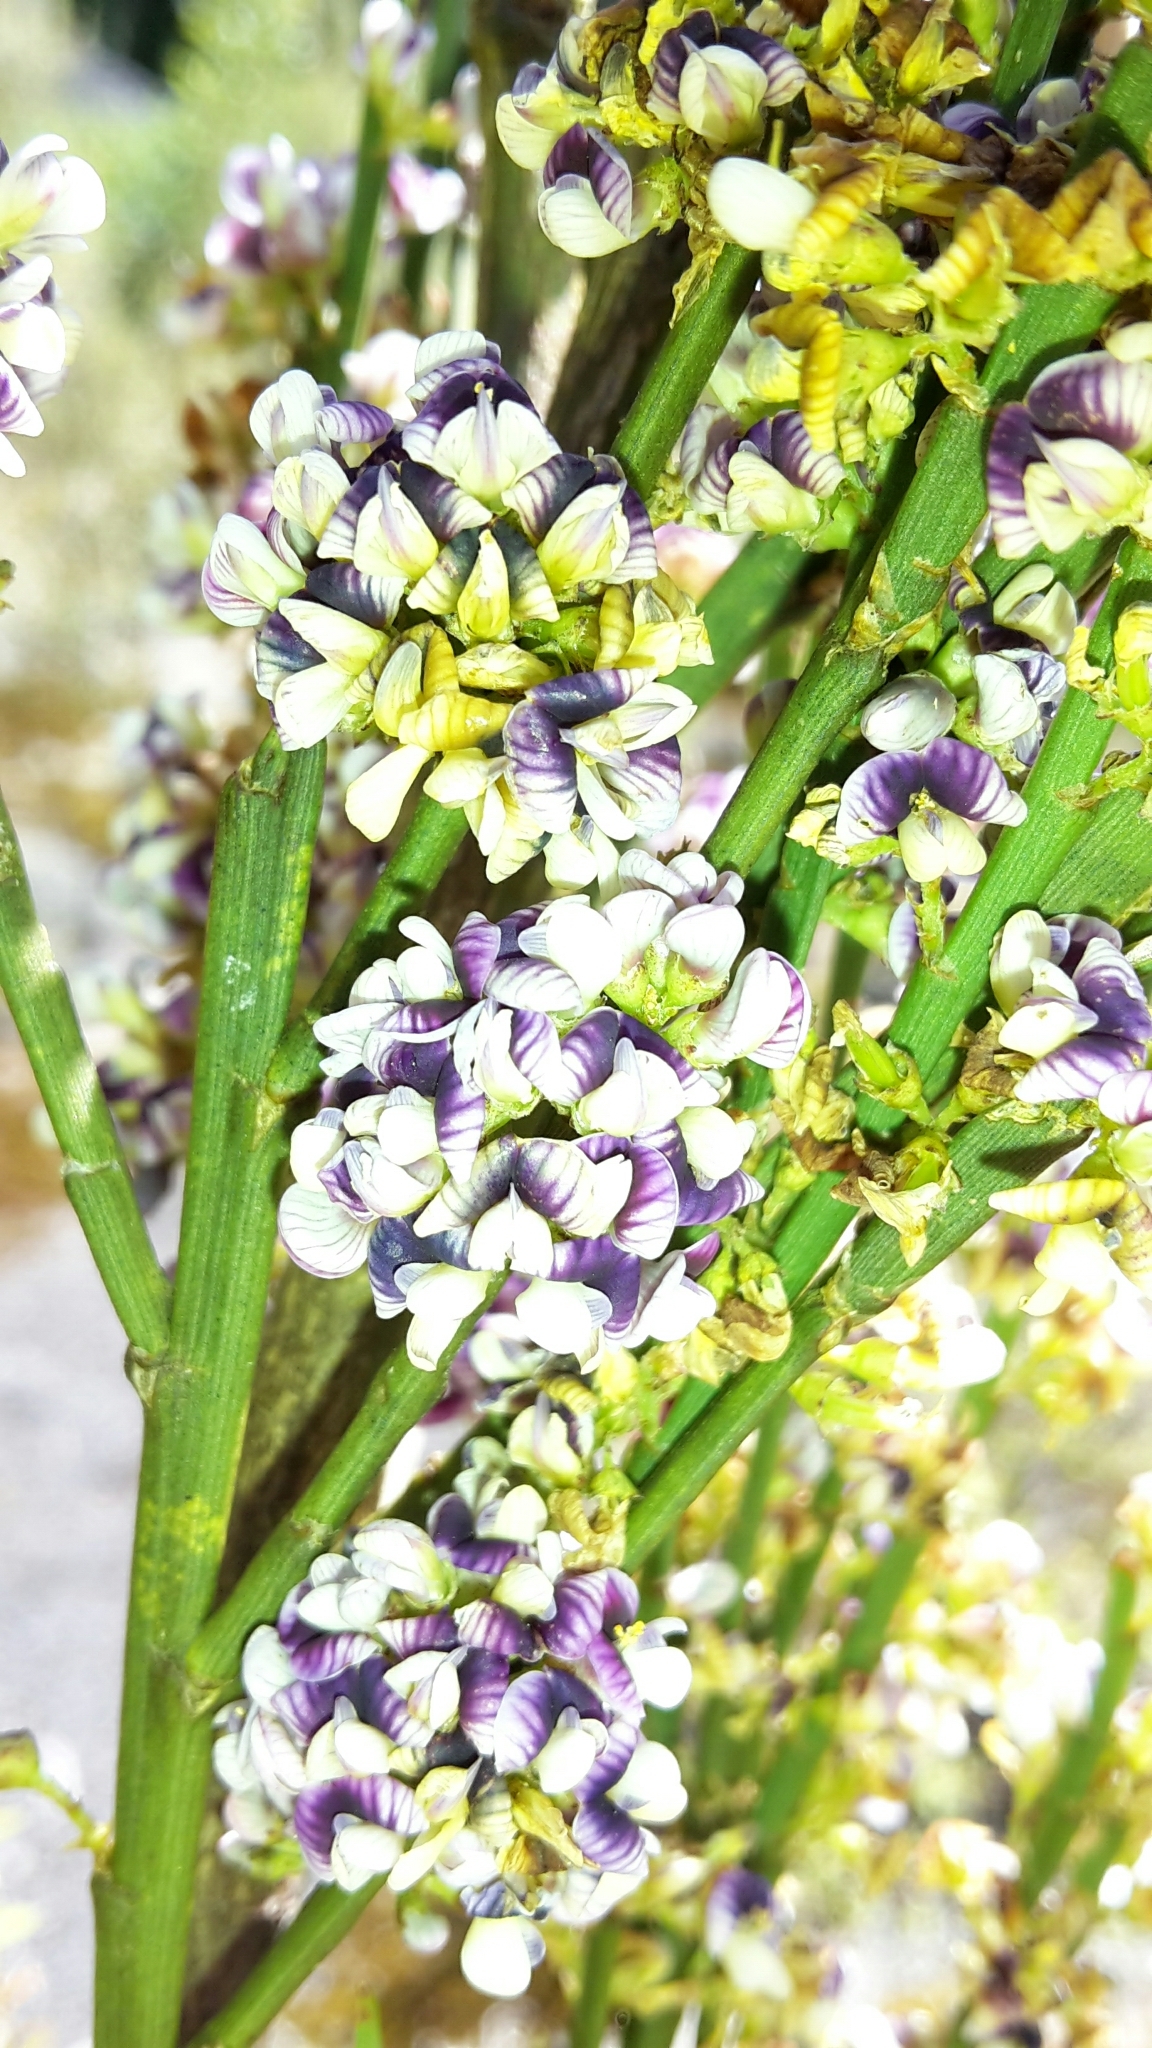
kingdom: Plantae
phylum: Tracheophyta
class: Magnoliopsida
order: Fabales
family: Fabaceae
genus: Carmichaelia
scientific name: Carmichaelia australis
